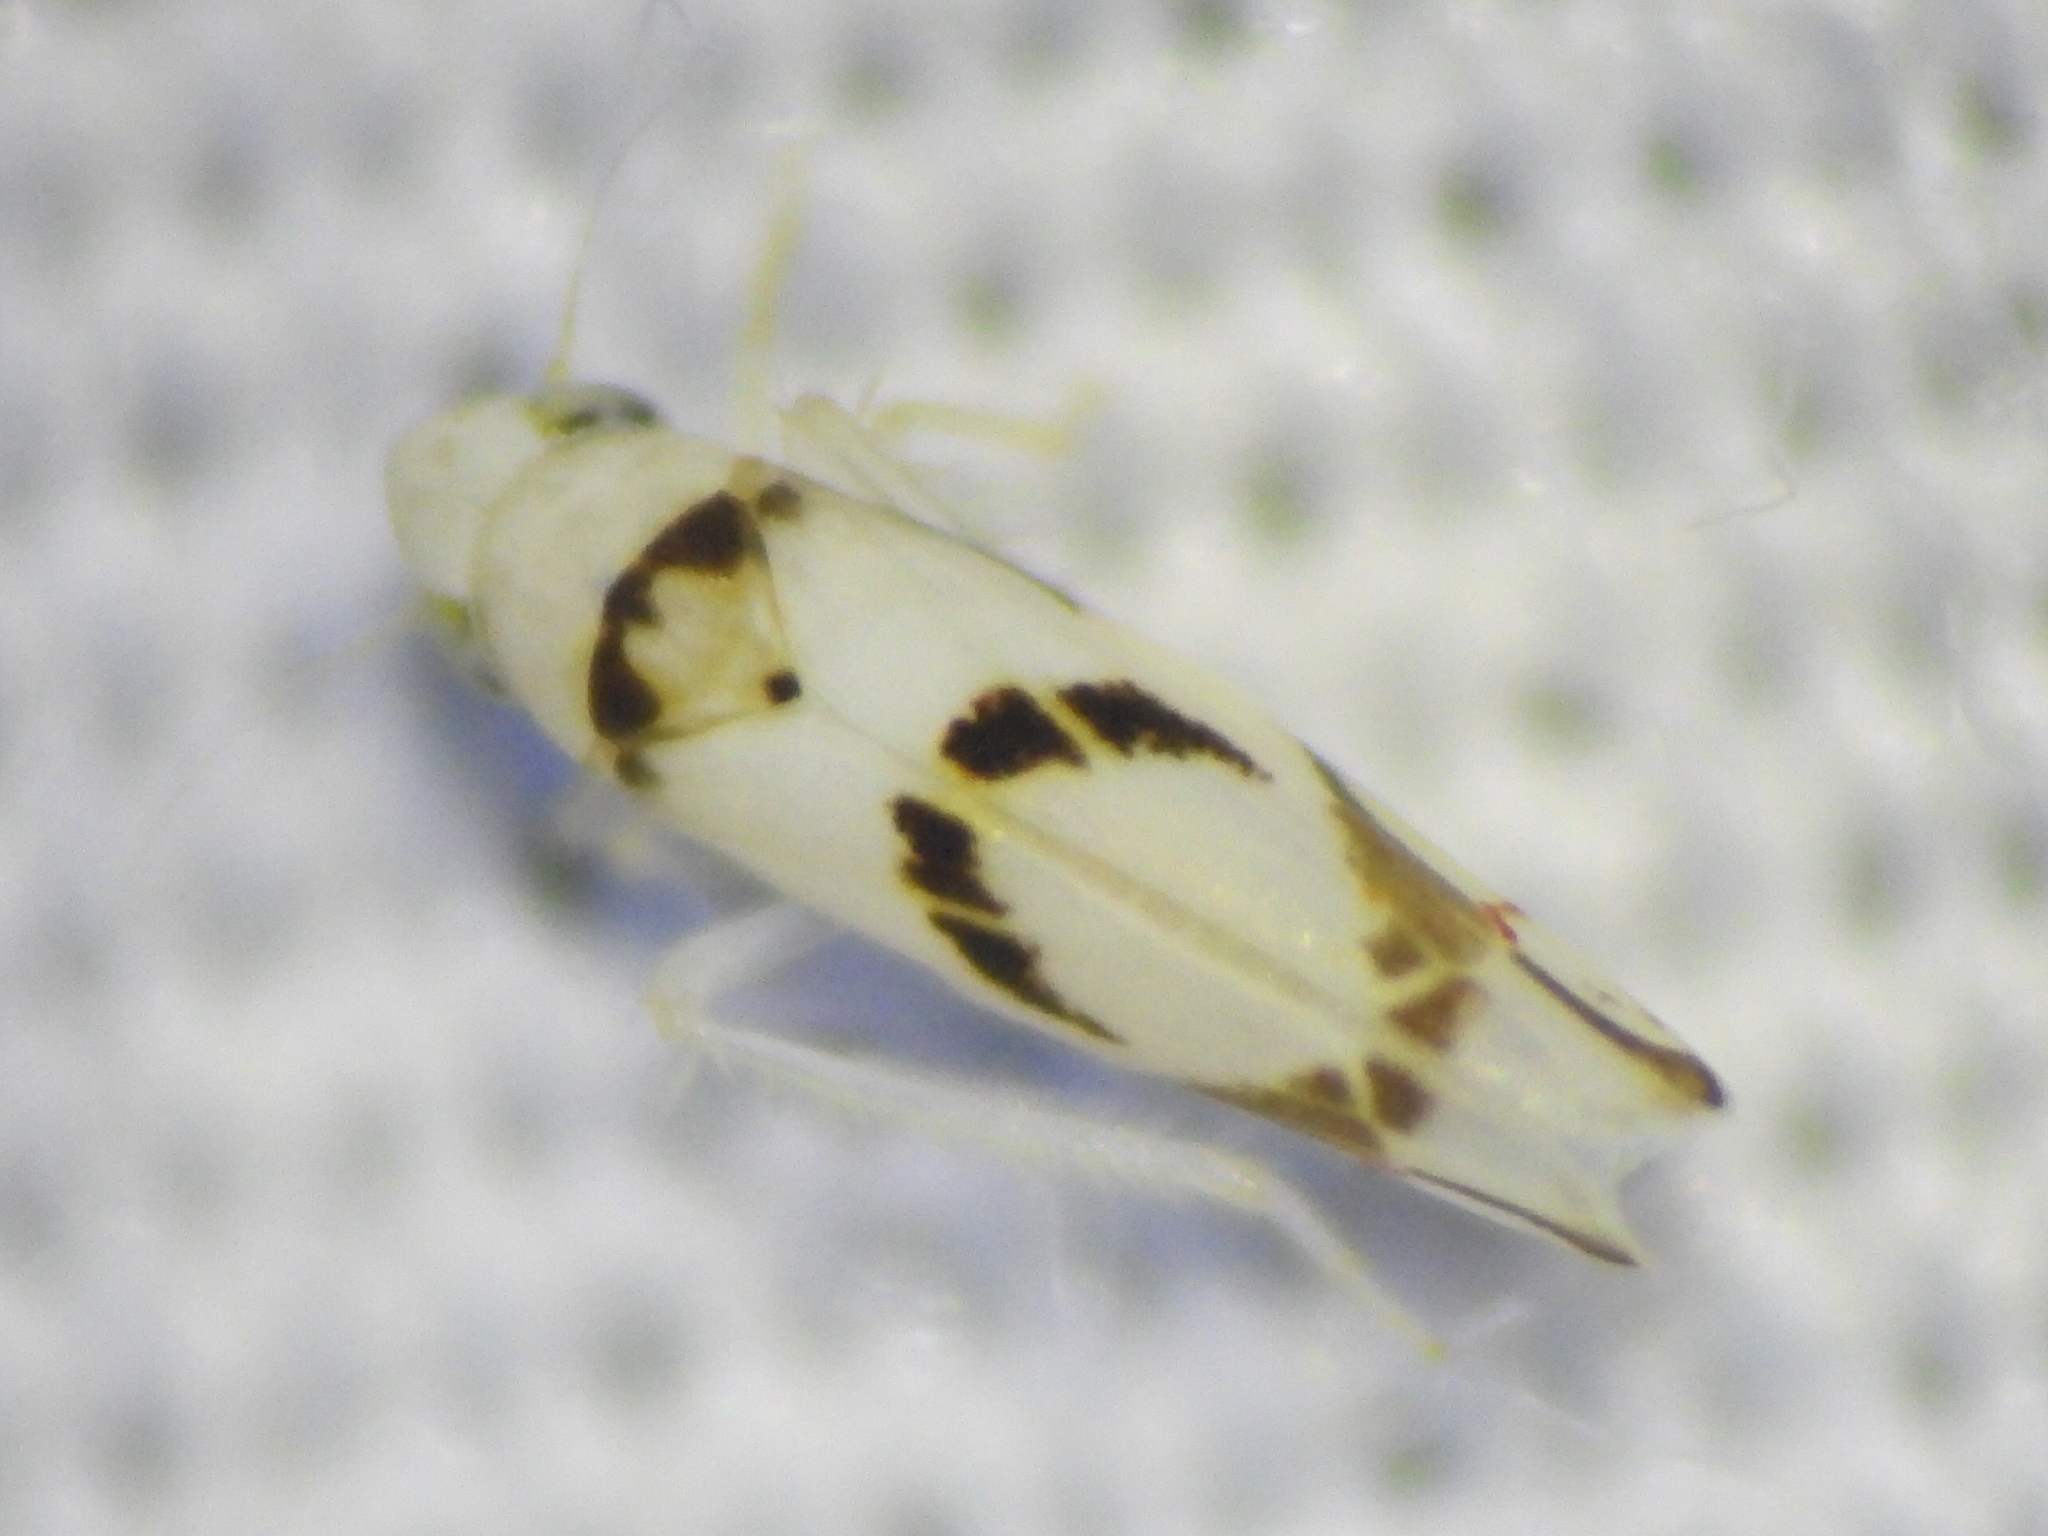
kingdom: Animalia
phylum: Arthropoda
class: Insecta
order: Hemiptera
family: Cicadellidae
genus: Eratoneura
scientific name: Eratoneura lunata
